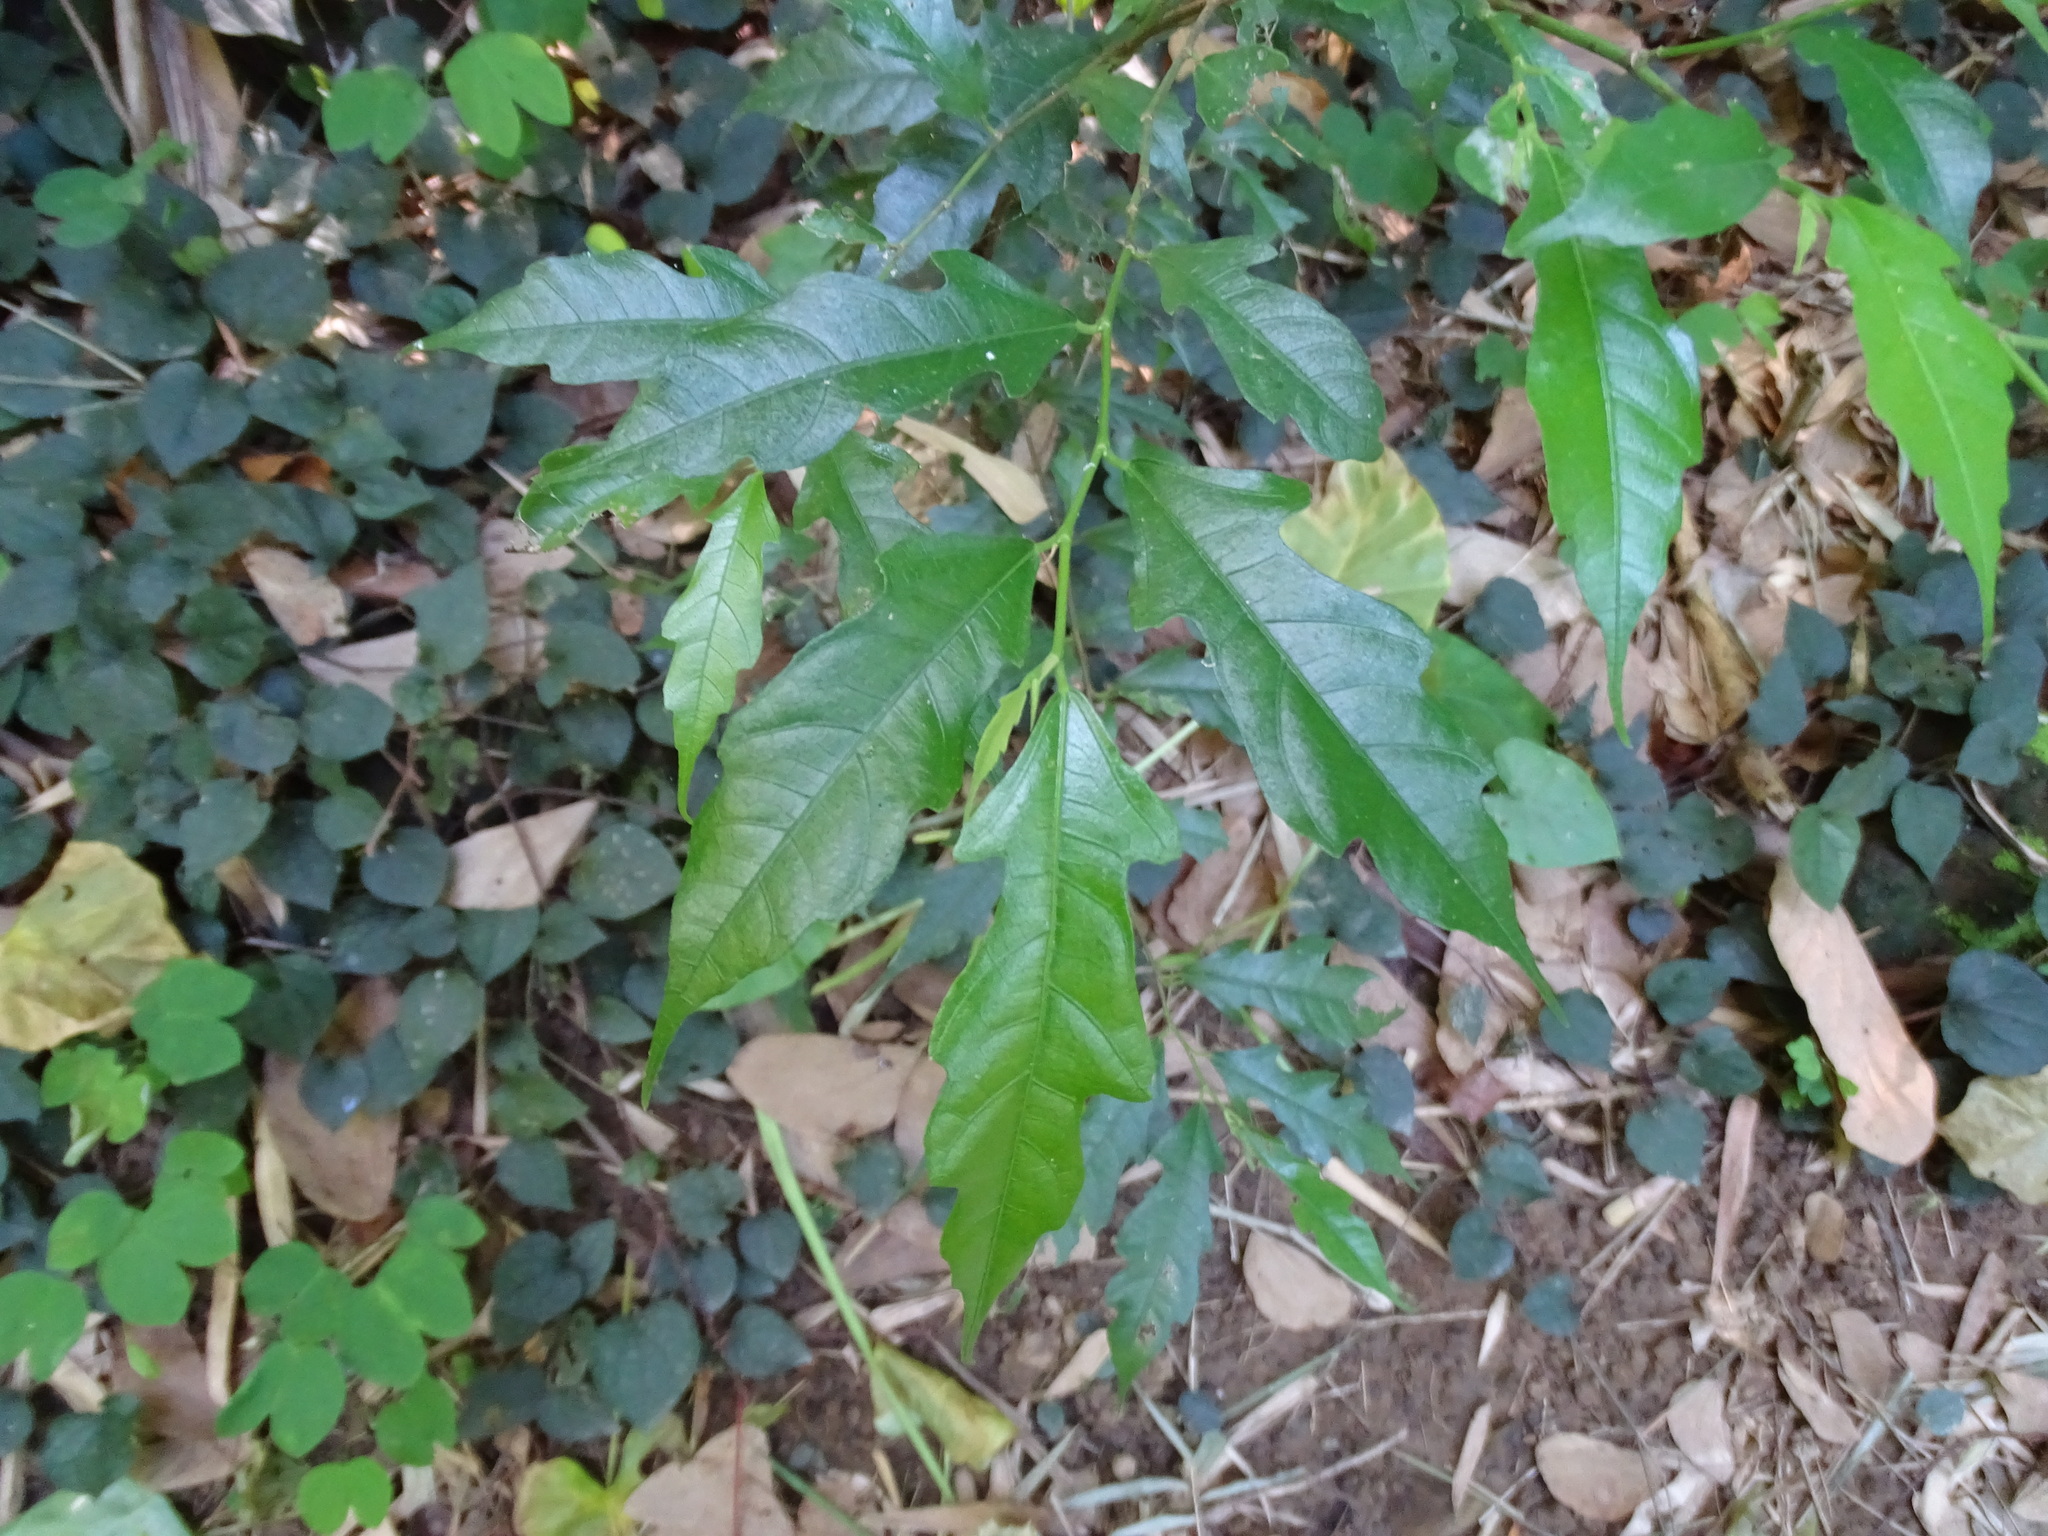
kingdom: Plantae
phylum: Tracheophyta
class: Magnoliopsida
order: Rosales
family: Moraceae
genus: Ficus
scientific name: Ficus ampelos
